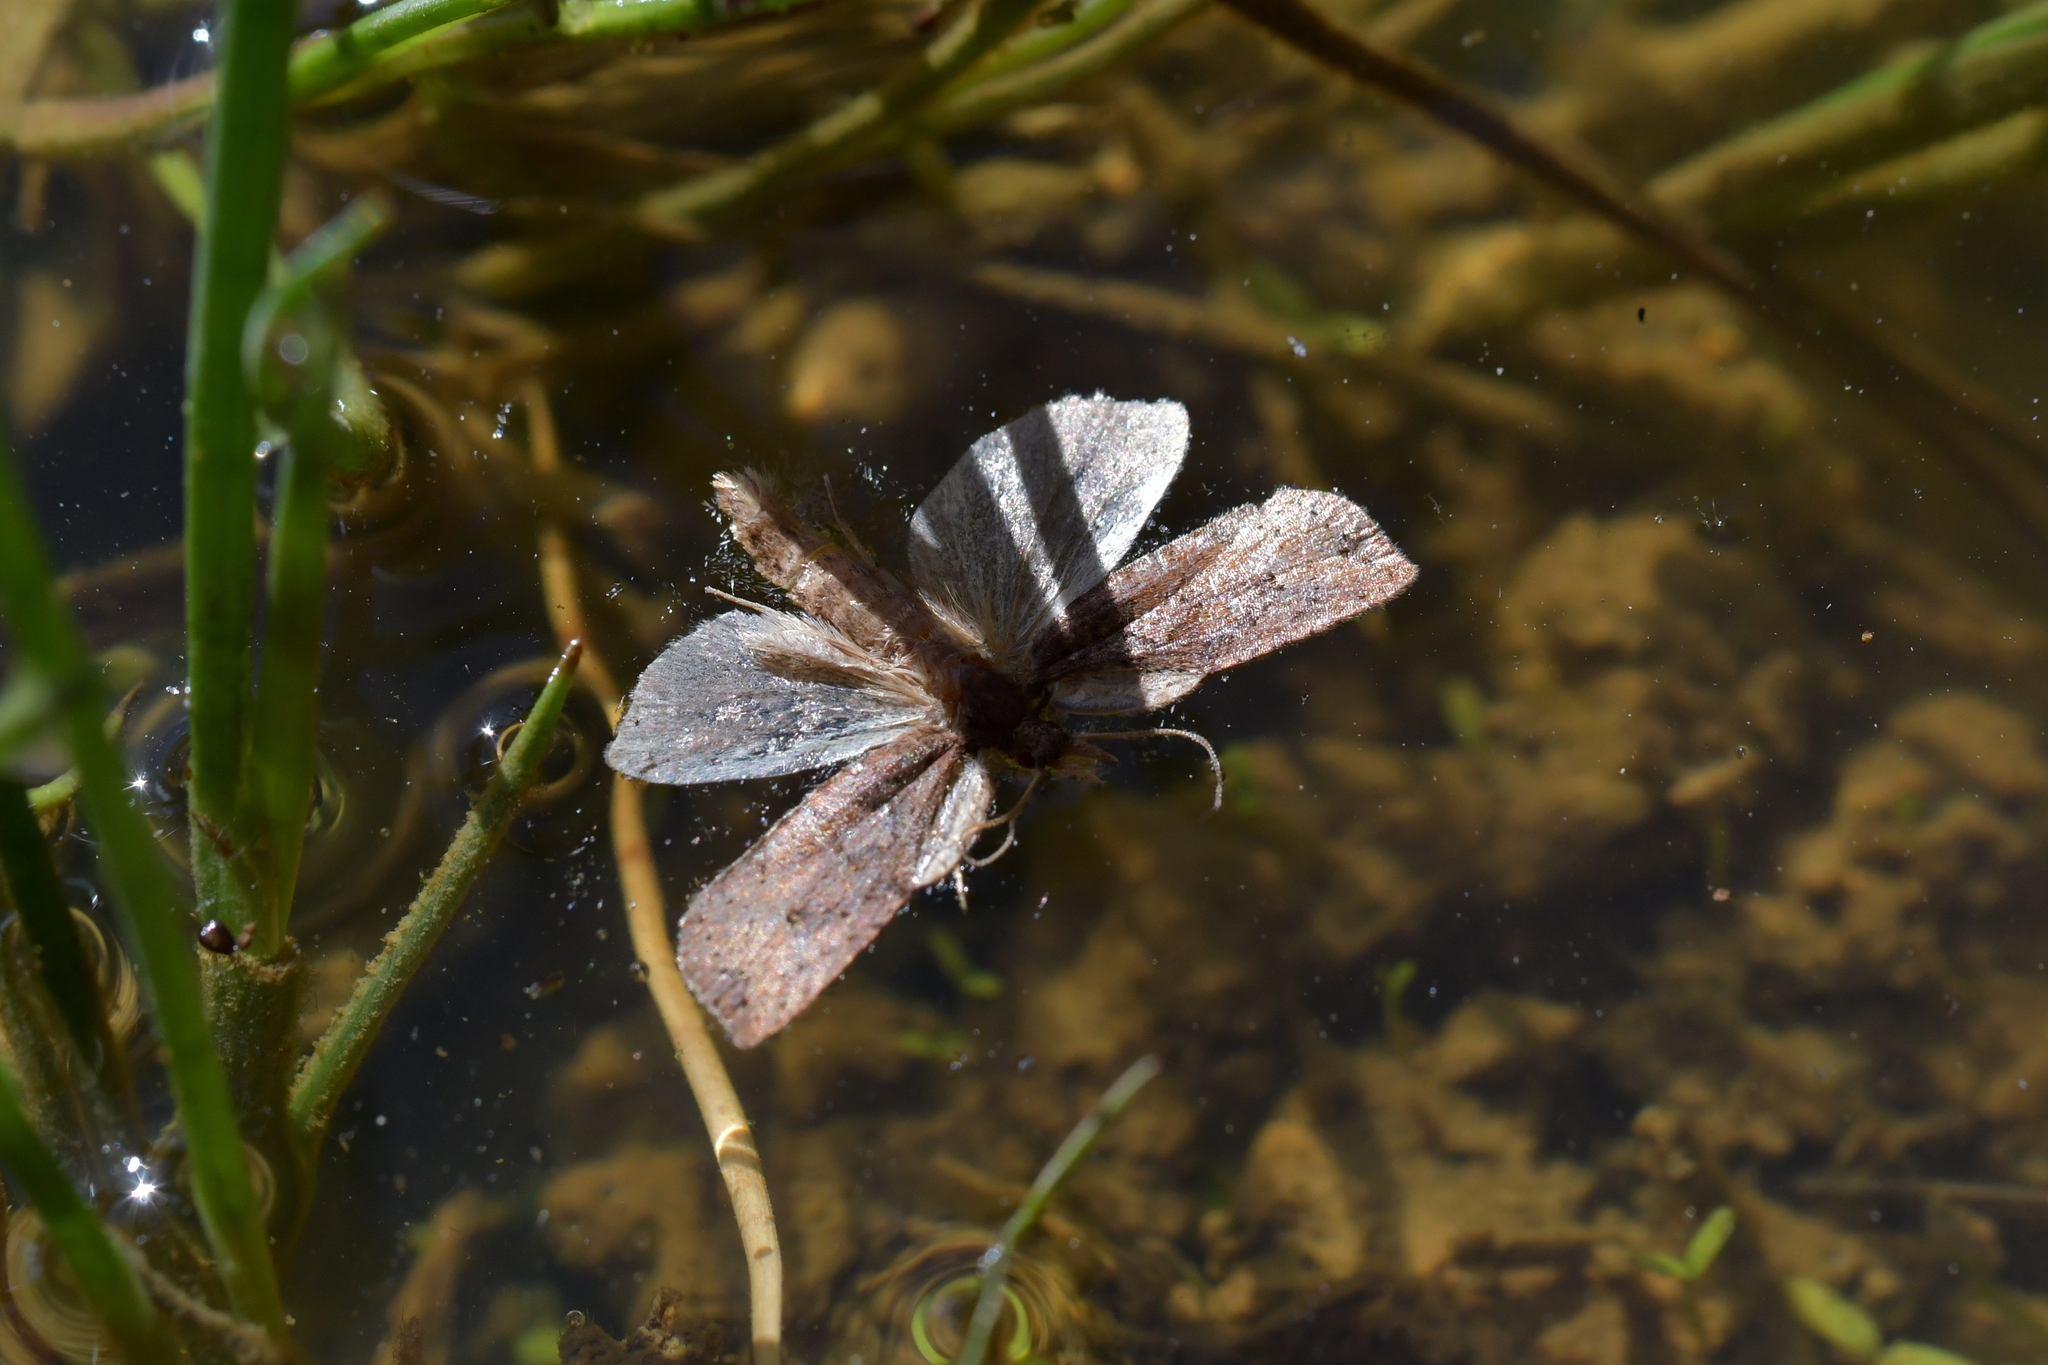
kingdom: Animalia
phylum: Arthropoda
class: Insecta
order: Lepidoptera
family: Tortricidae
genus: Planotortrix
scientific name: Planotortrix notophaea
